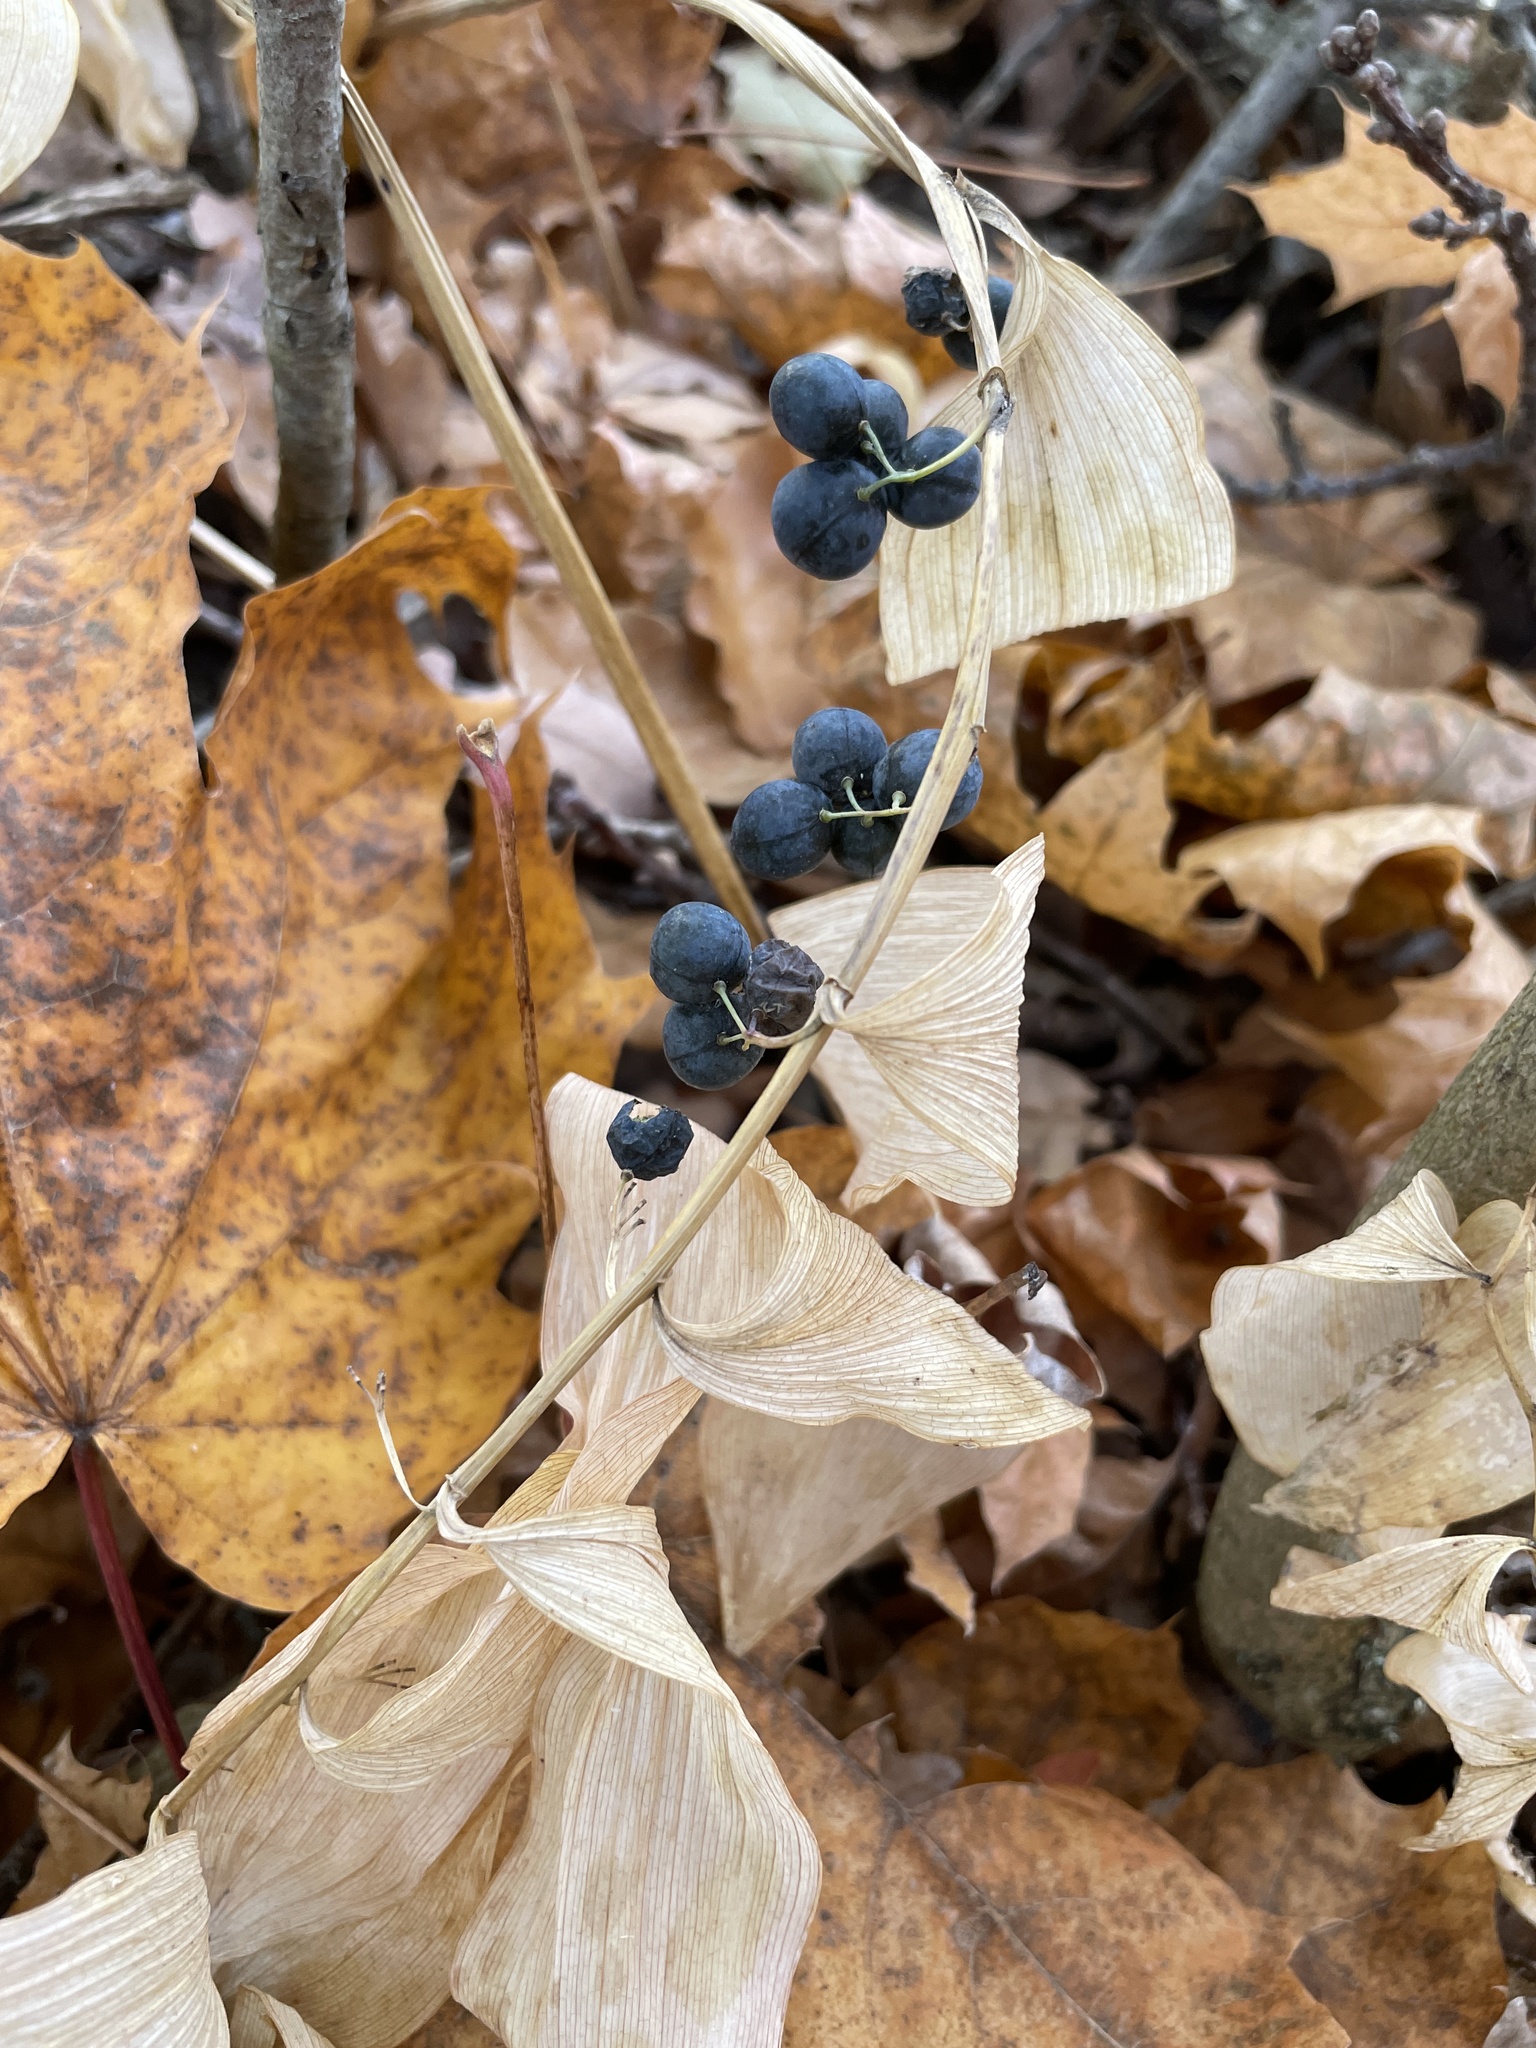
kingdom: Plantae
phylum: Tracheophyta
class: Liliopsida
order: Asparagales
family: Asparagaceae
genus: Polygonatum
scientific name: Polygonatum multiflorum
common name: Solomon's-seal
